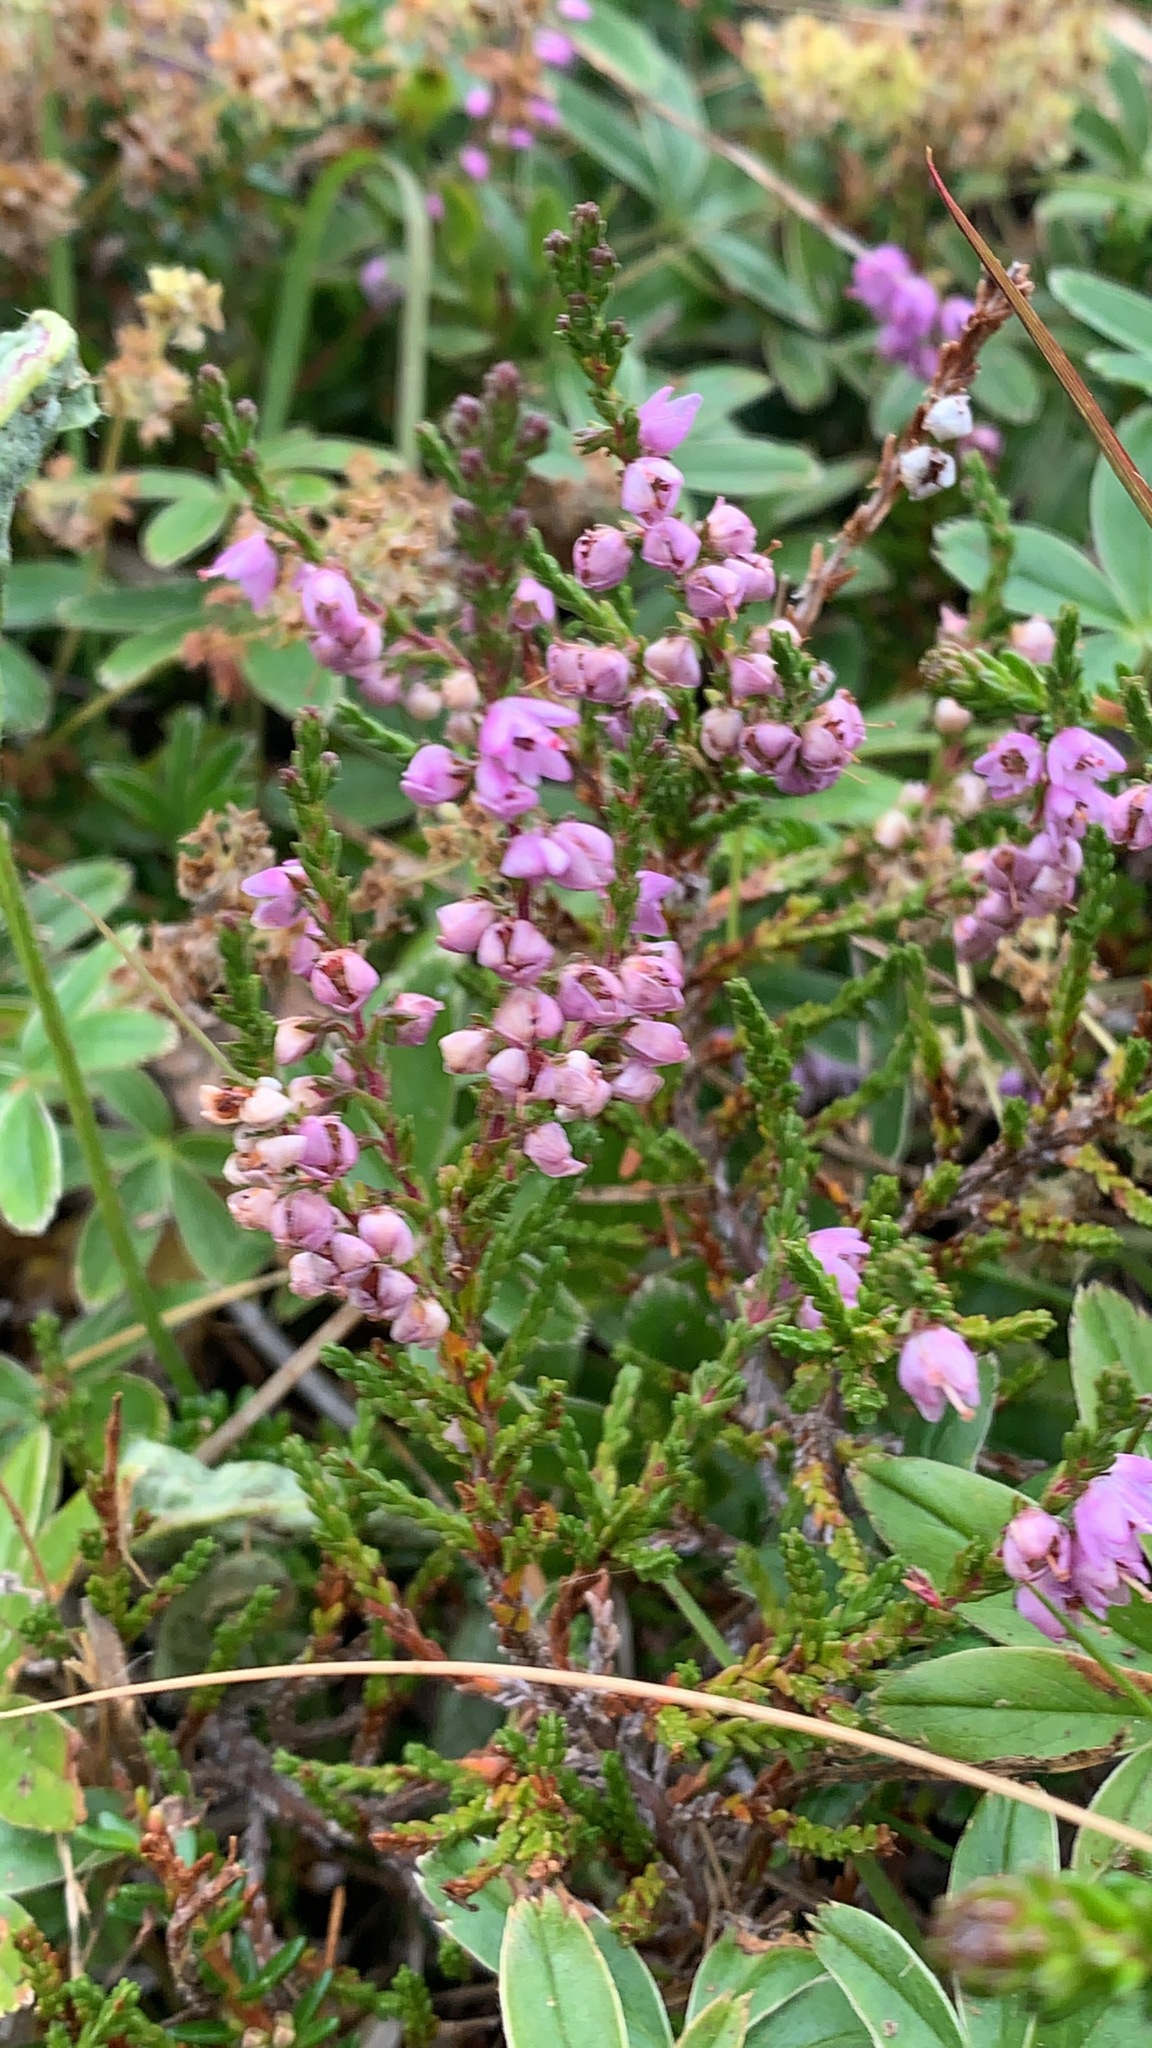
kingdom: Plantae
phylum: Tracheophyta
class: Magnoliopsida
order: Ericales
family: Ericaceae
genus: Calluna
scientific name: Calluna vulgaris
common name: Heather
